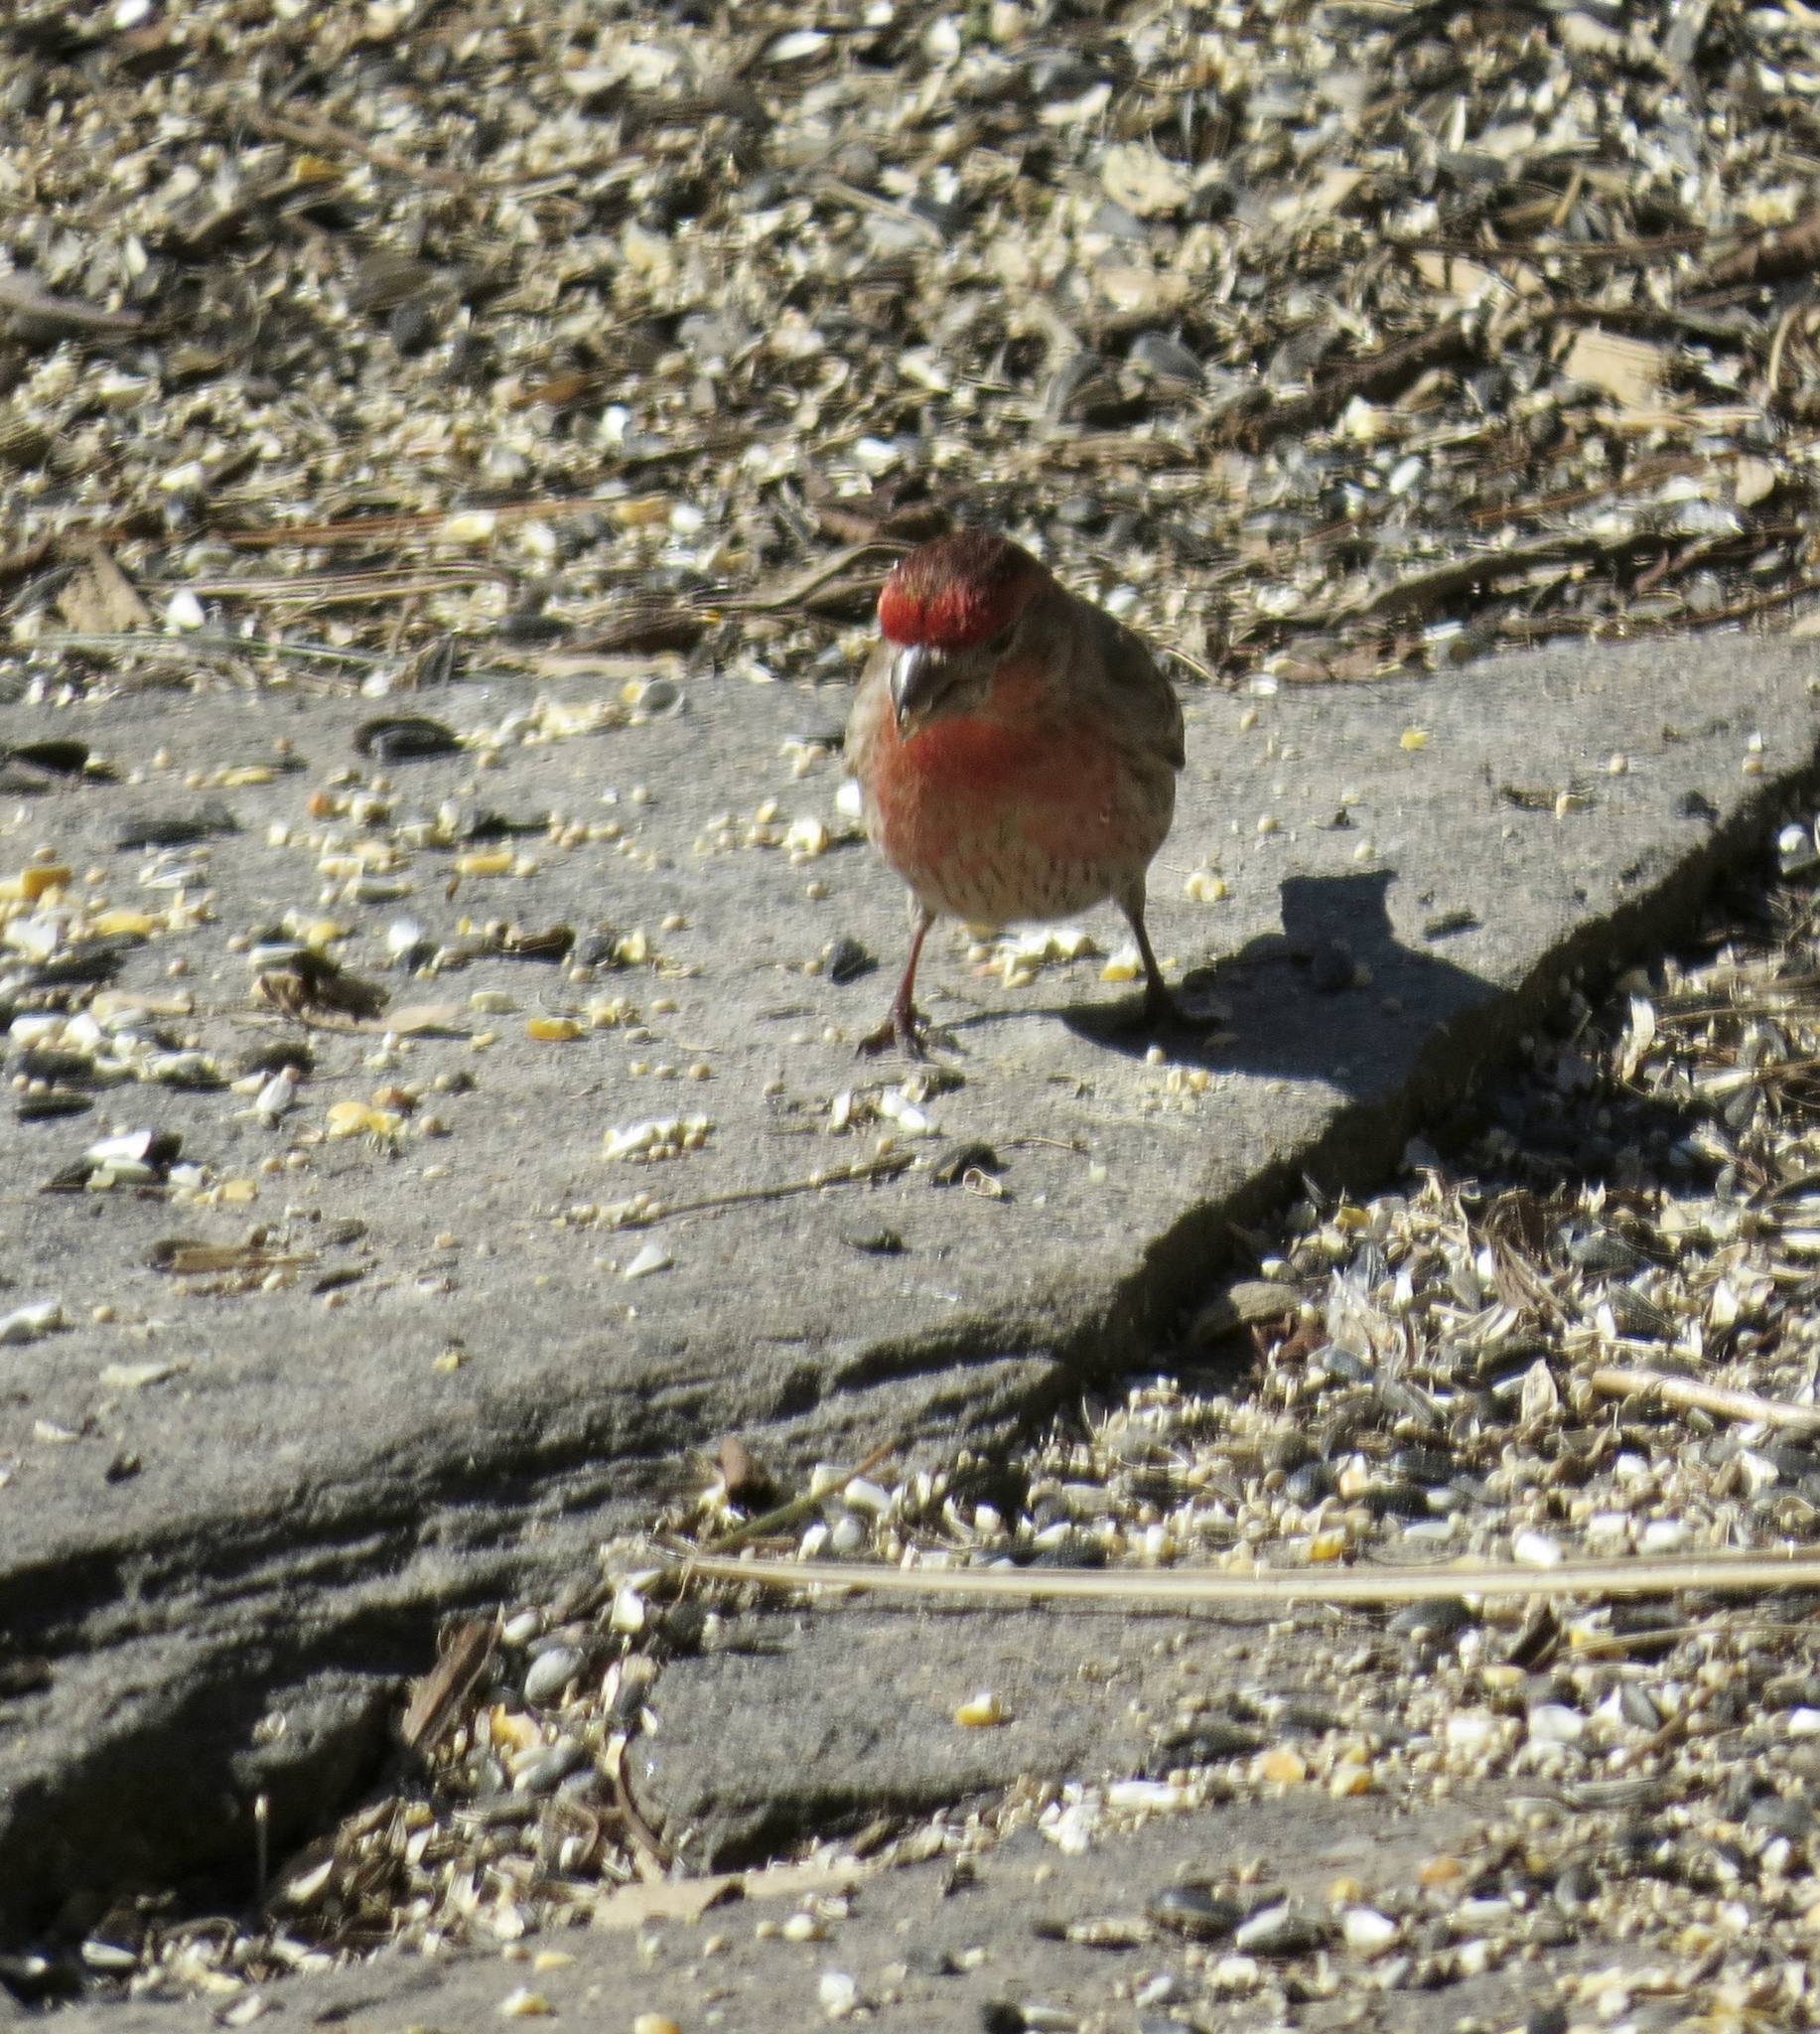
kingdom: Animalia
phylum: Chordata
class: Aves
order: Passeriformes
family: Fringillidae
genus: Haemorhous
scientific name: Haemorhous mexicanus
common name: House finch
